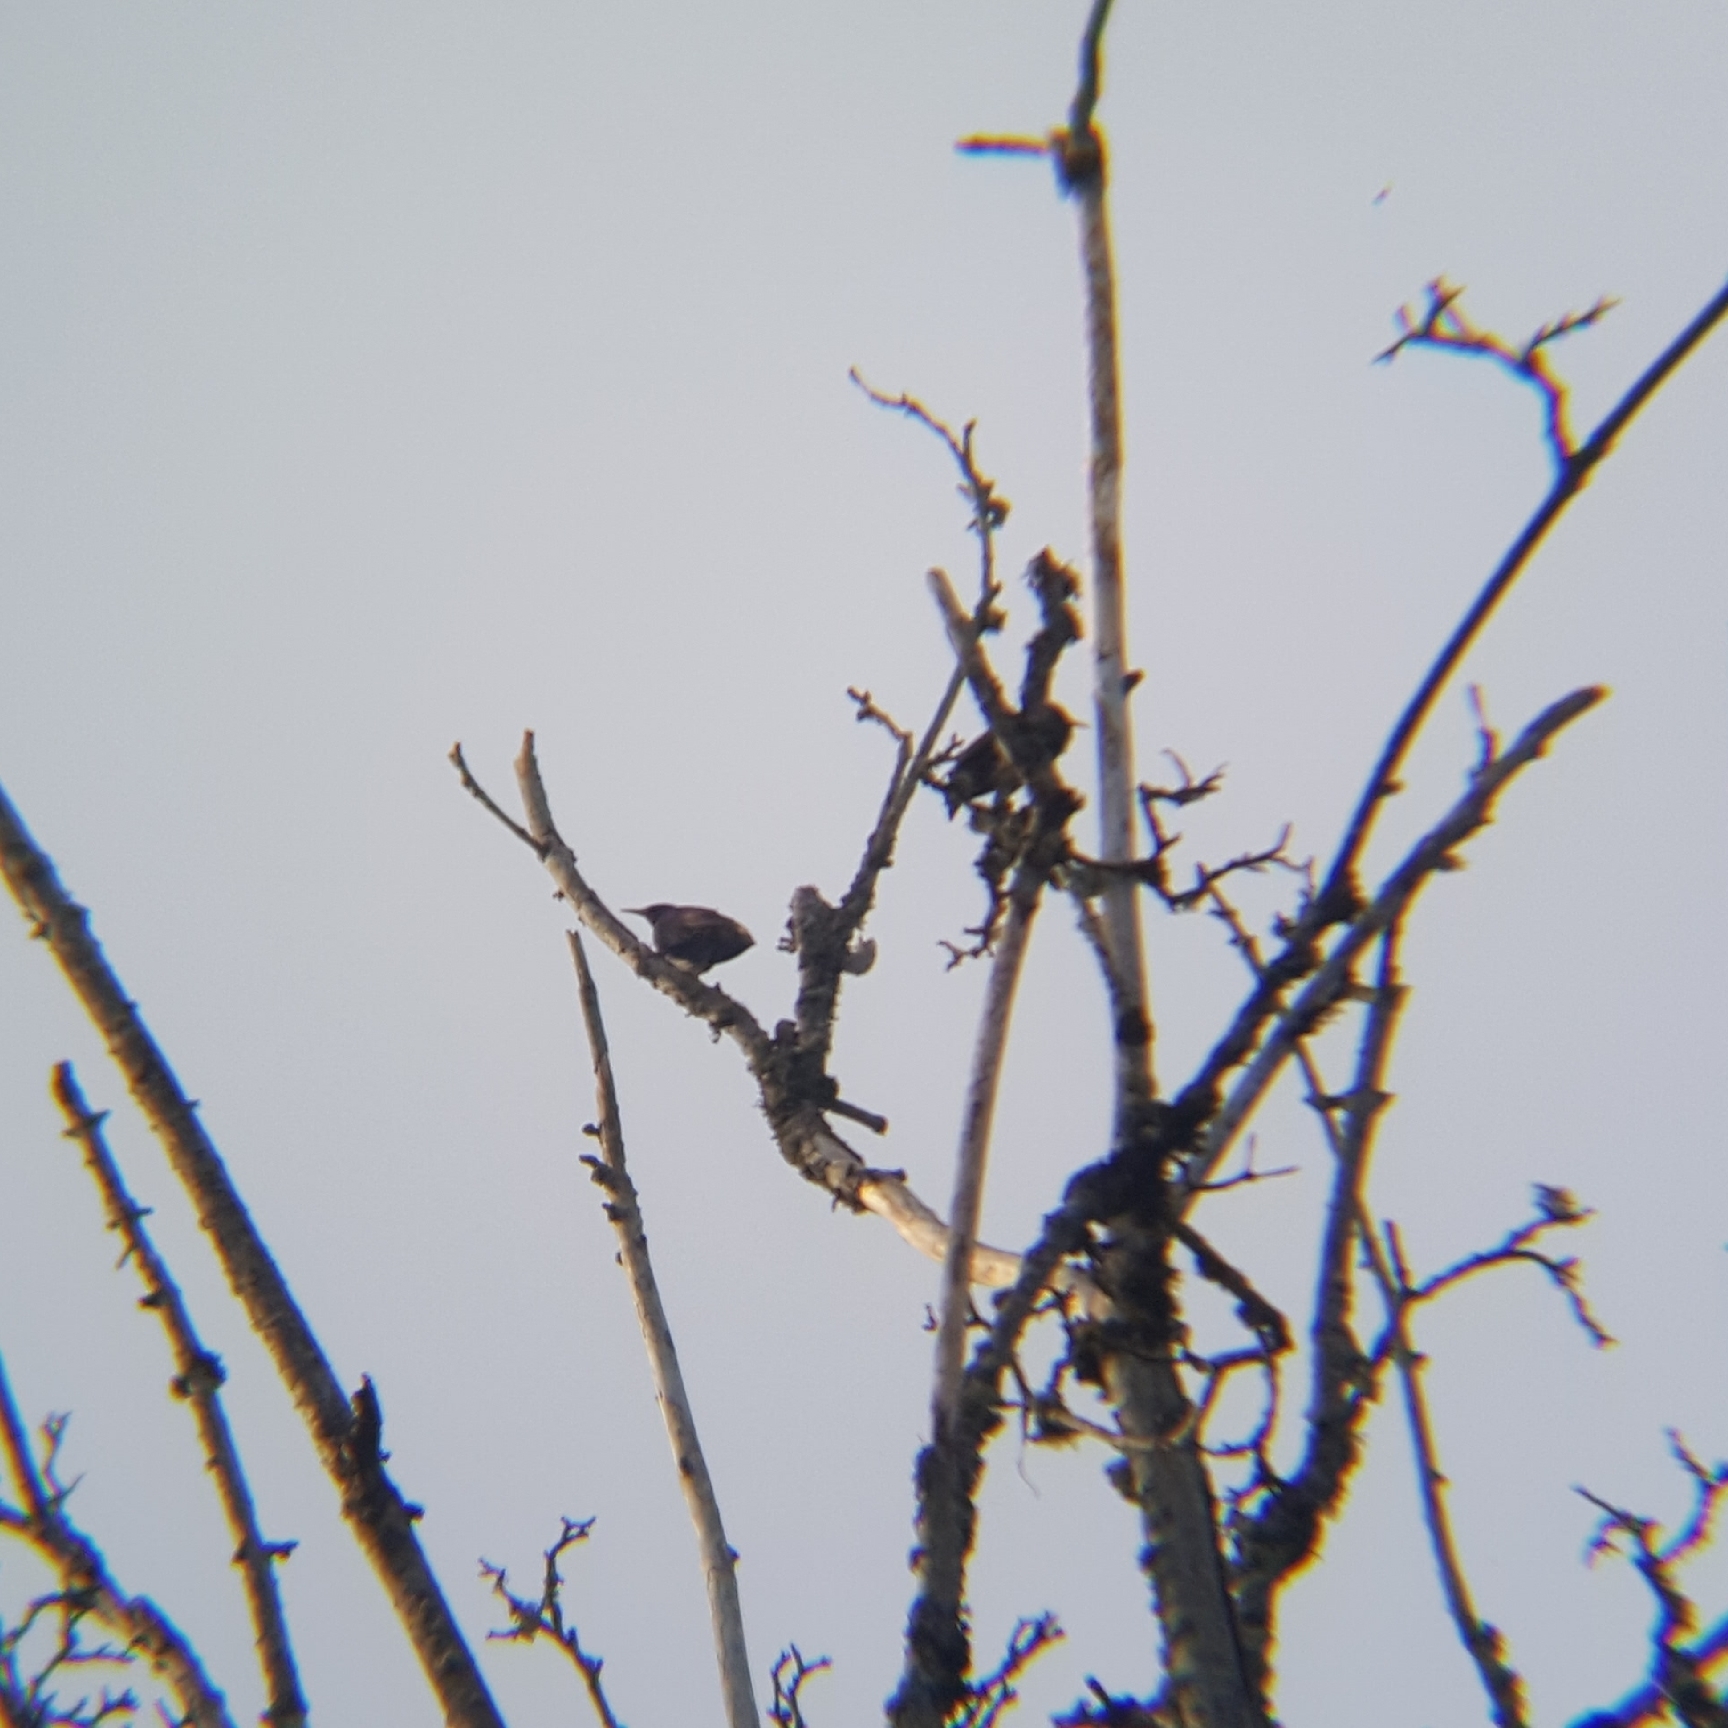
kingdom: Animalia
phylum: Chordata
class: Aves
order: Passeriformes
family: Sturnidae
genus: Sturnus
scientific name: Sturnus vulgaris
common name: Common starling
